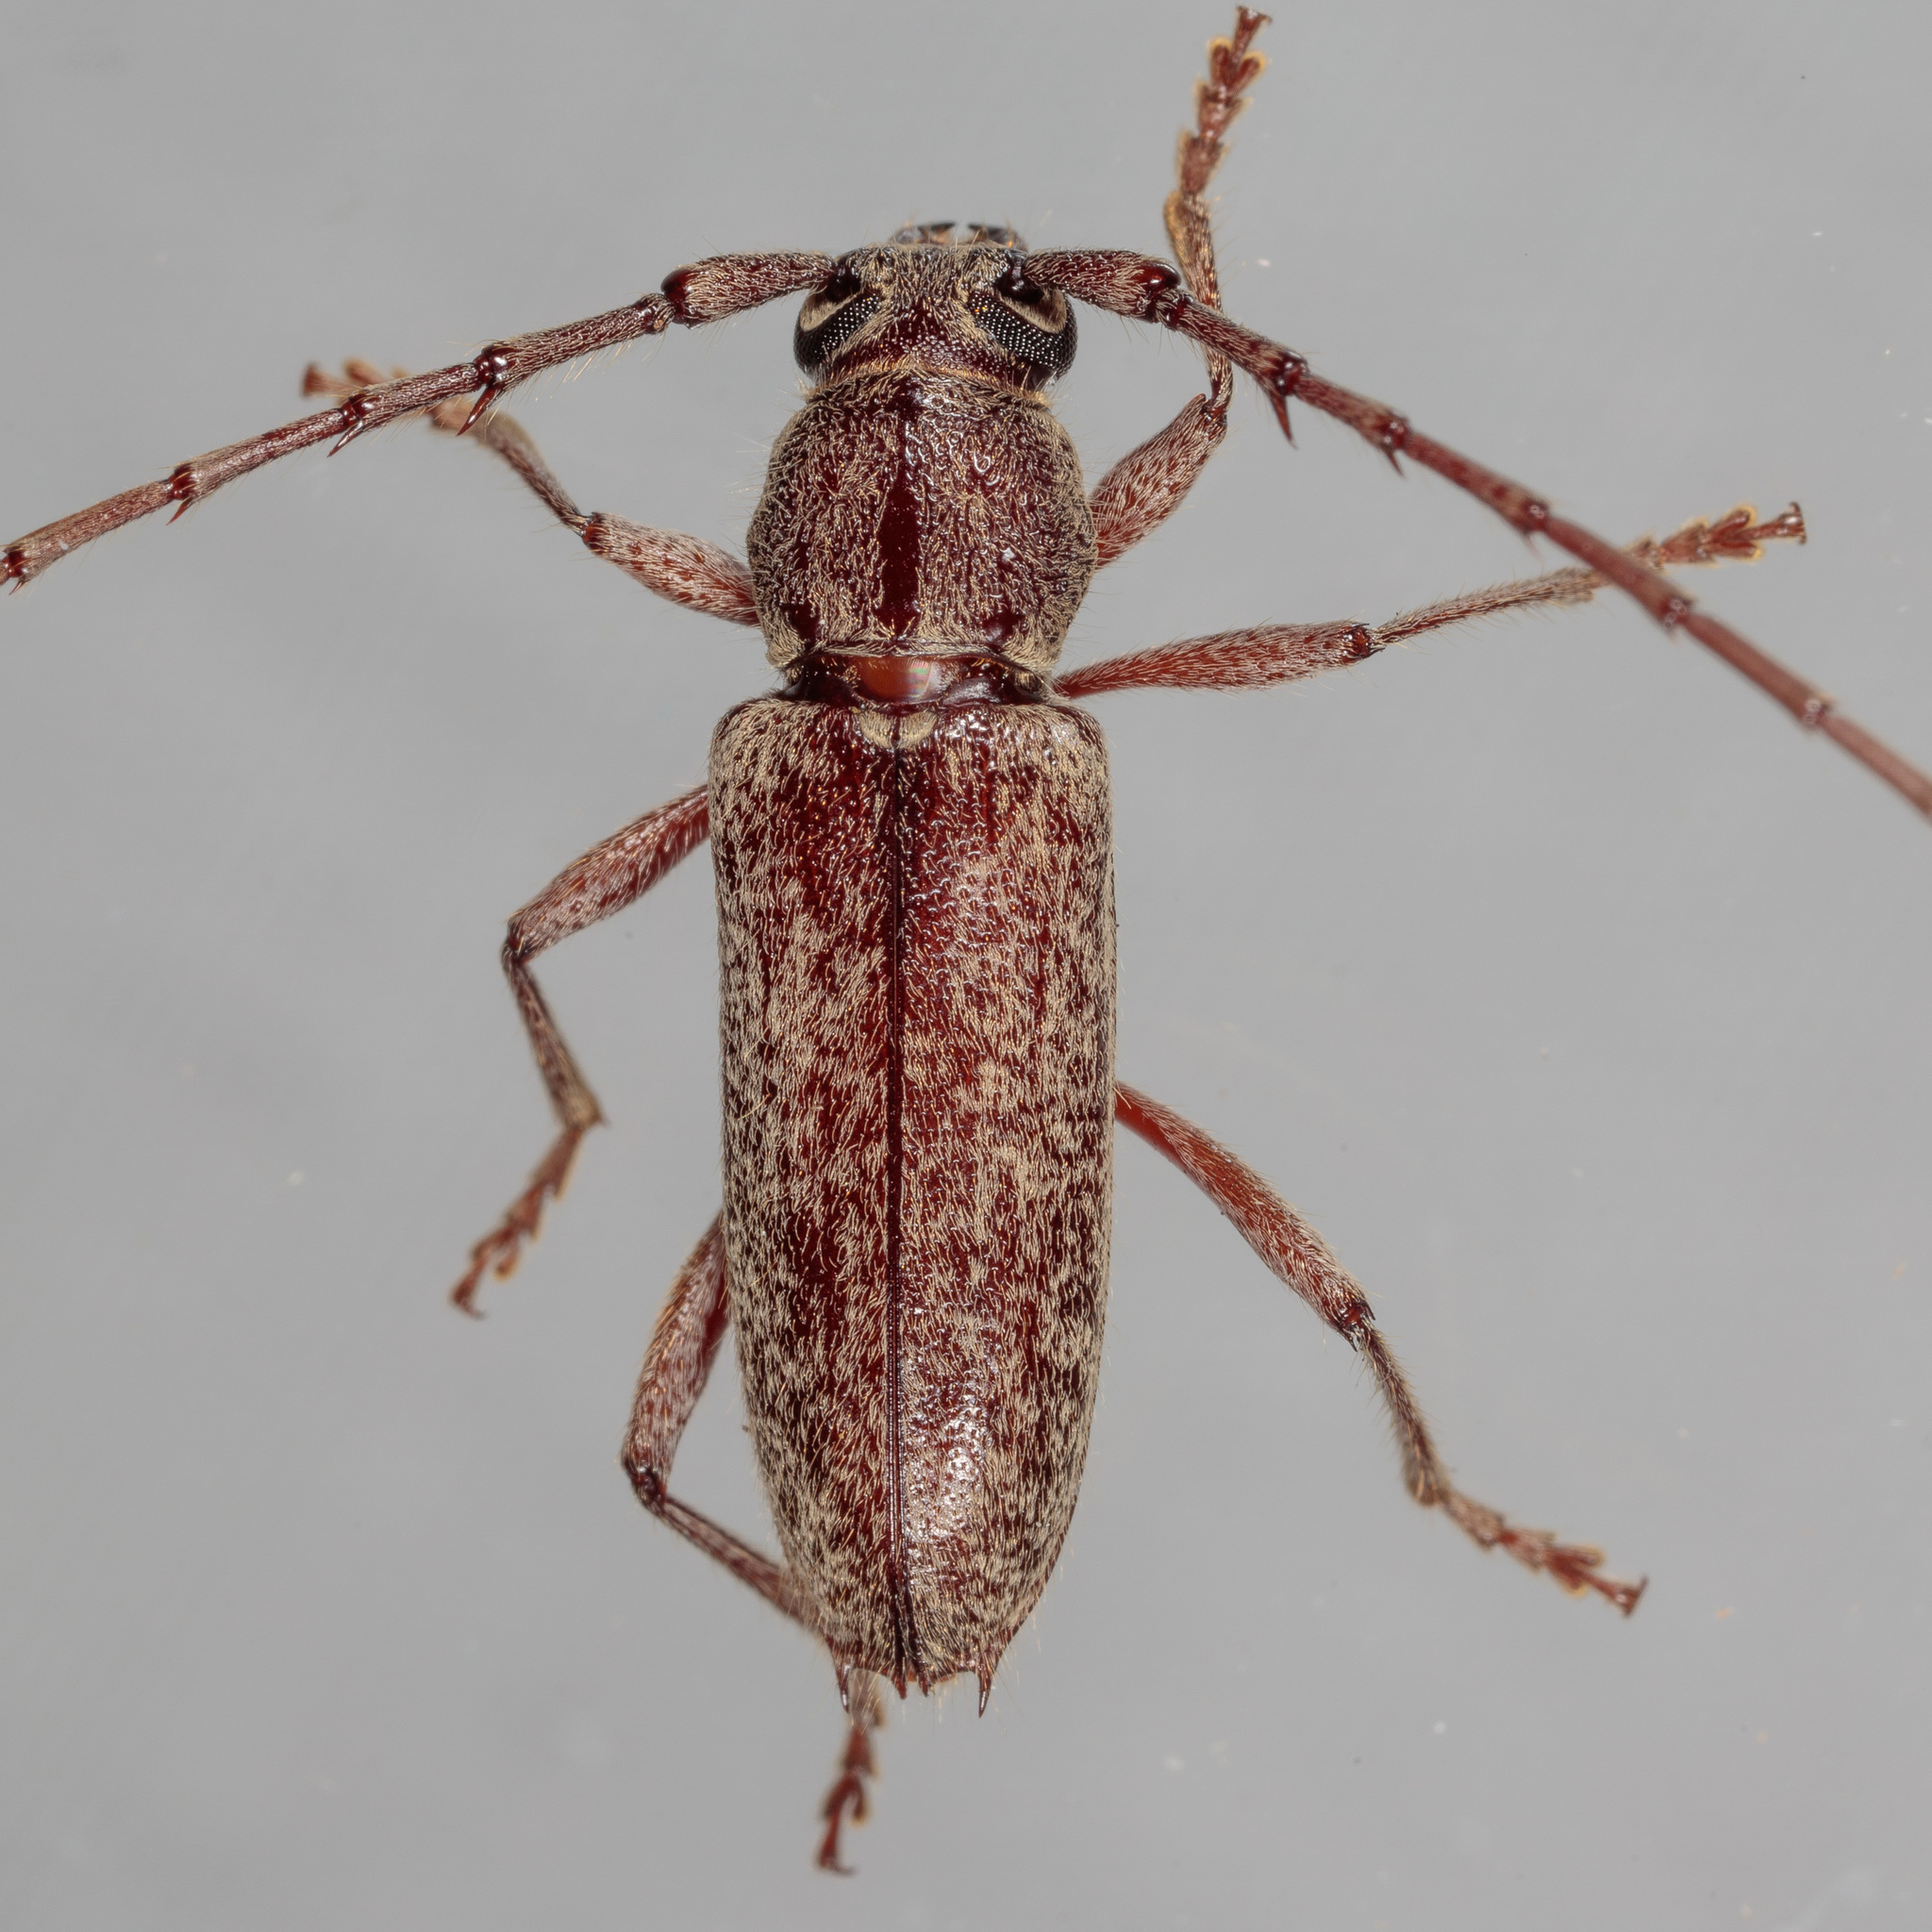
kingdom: Animalia
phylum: Arthropoda
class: Insecta
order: Coleoptera
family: Cerambycidae
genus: Elaphidion
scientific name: Elaphidion mucronatum
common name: Spined oak borer
